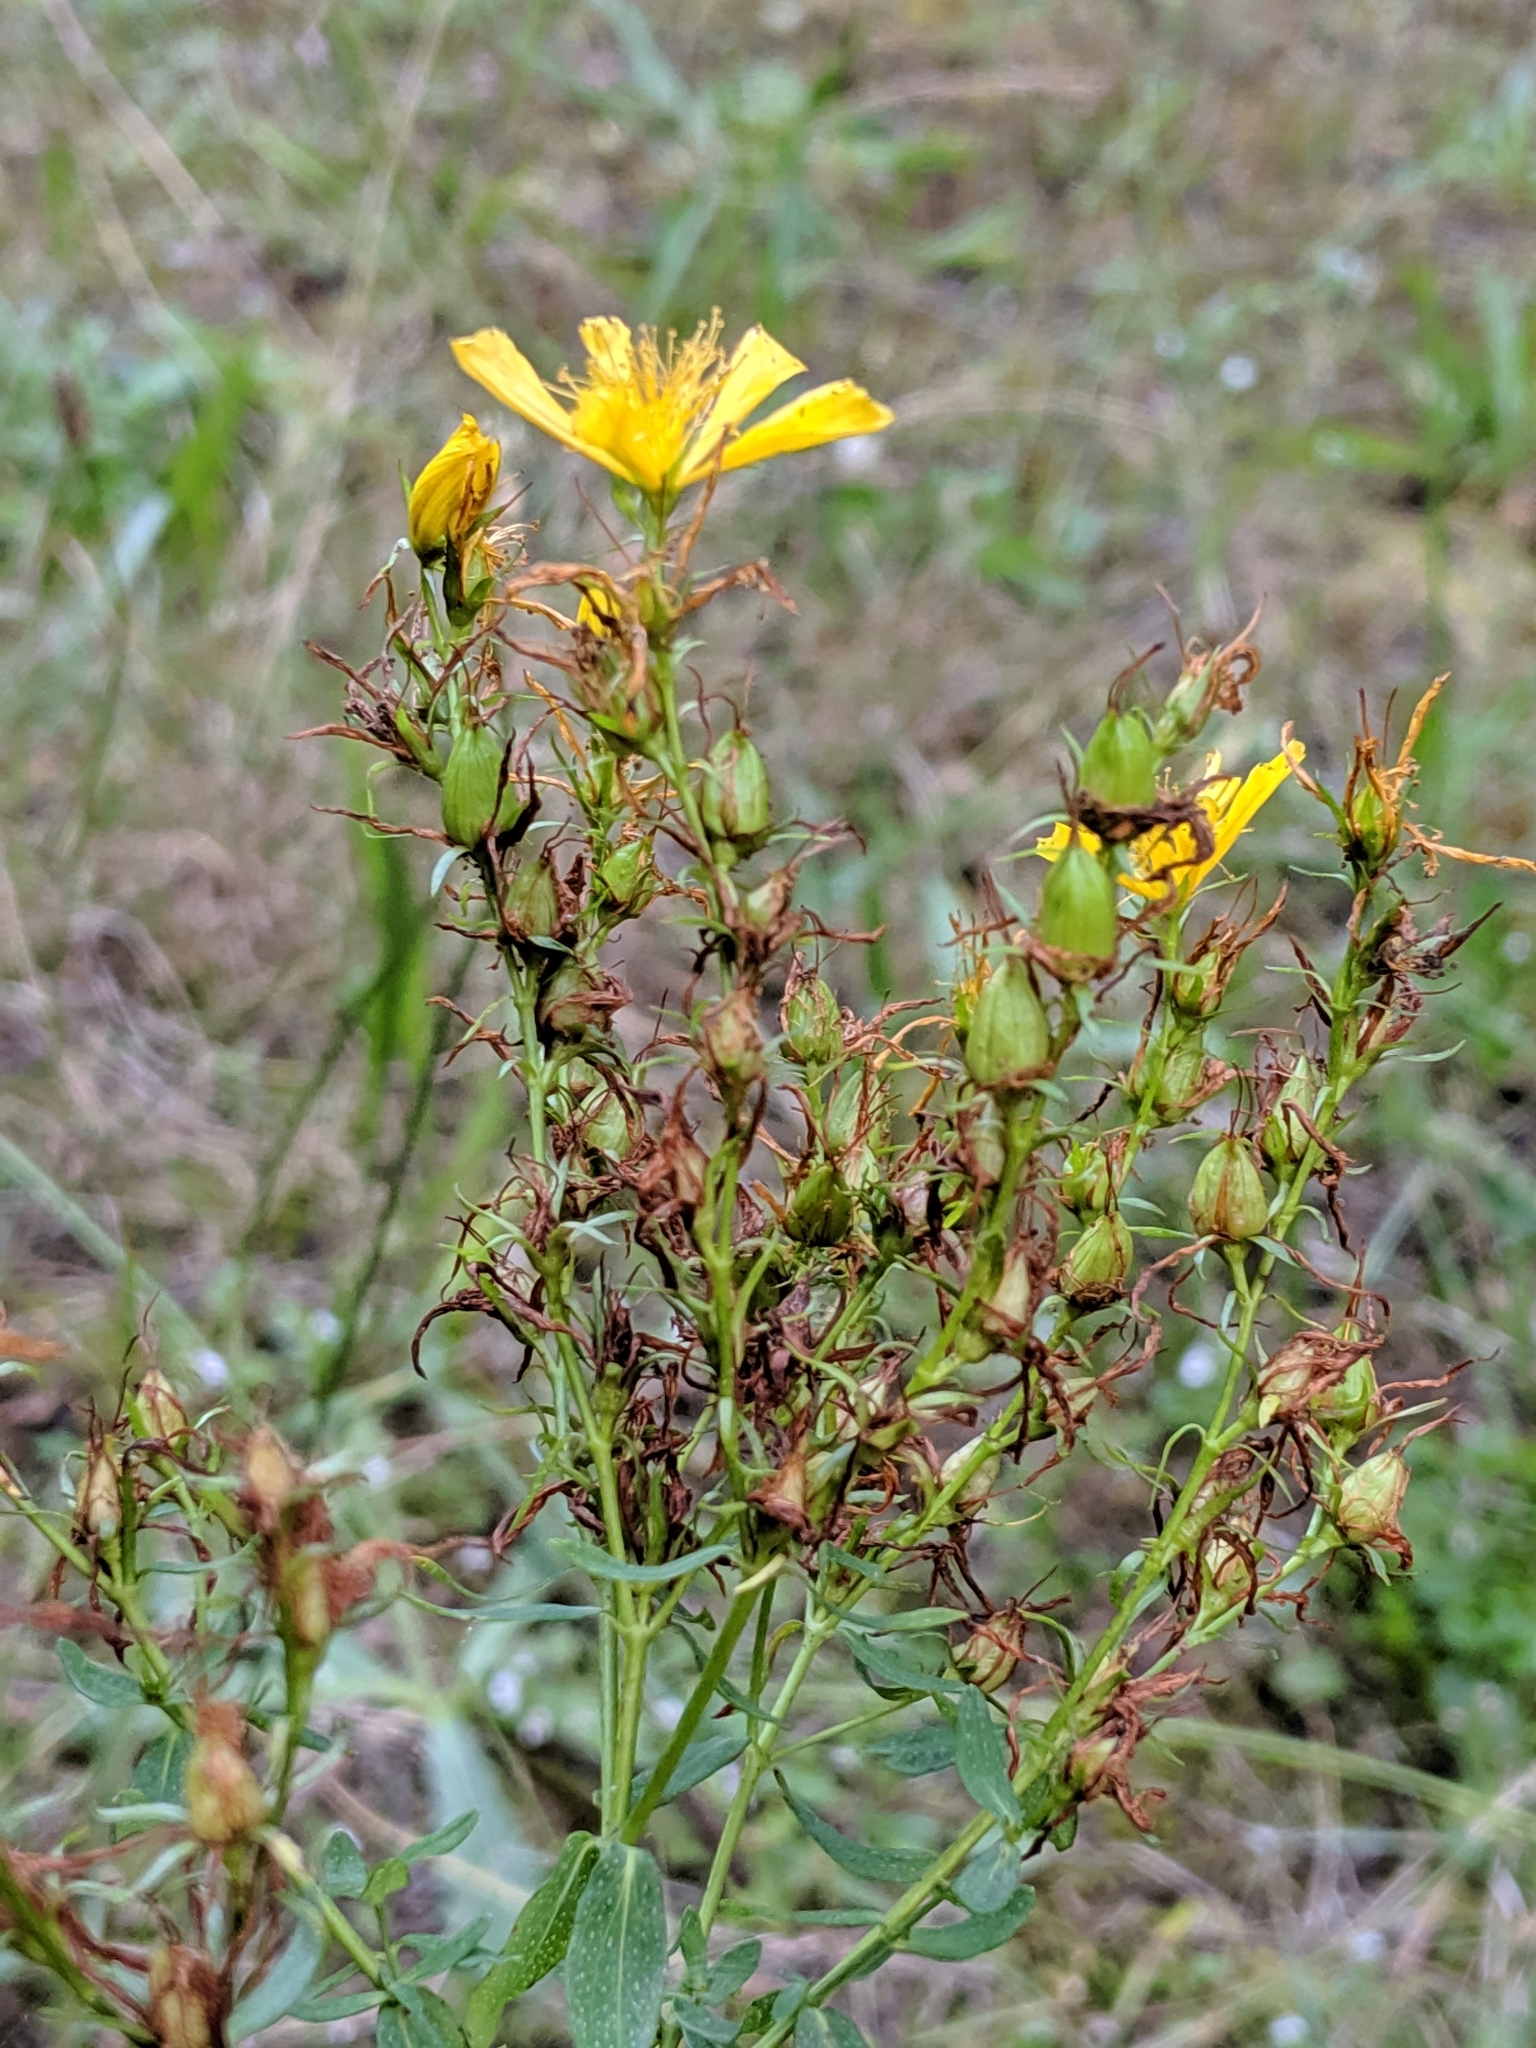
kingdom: Plantae
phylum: Tracheophyta
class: Magnoliopsida
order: Malpighiales
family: Hypericaceae
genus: Hypericum
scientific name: Hypericum perforatum
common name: Common st. johnswort
